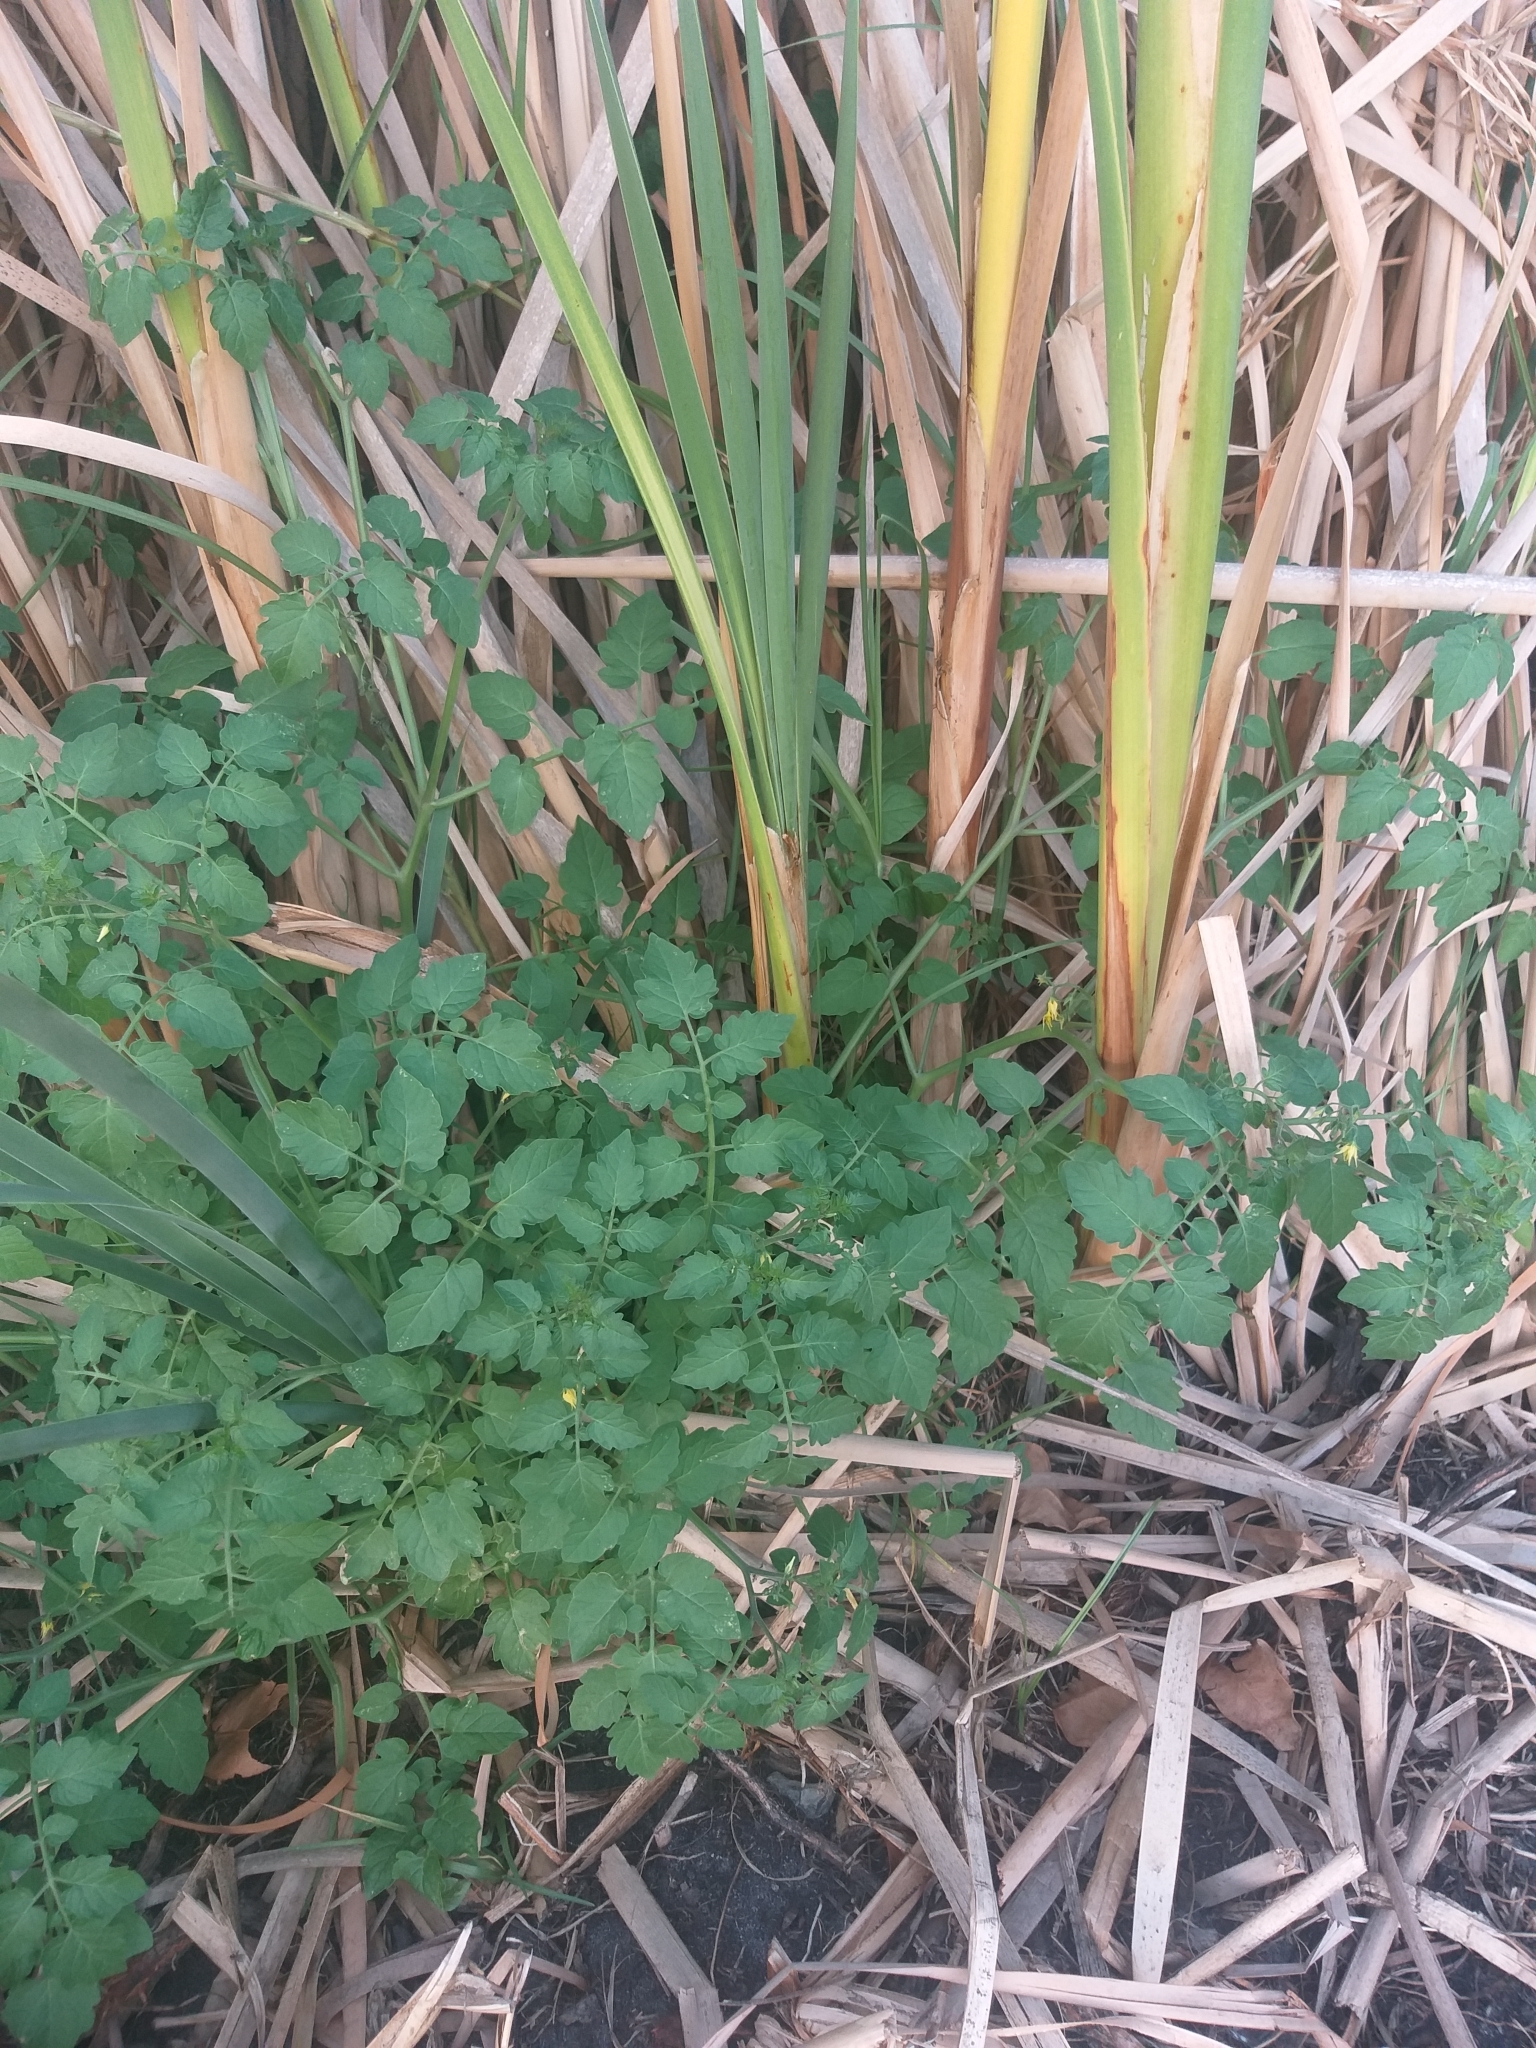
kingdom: Plantae
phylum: Tracheophyta
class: Magnoliopsida
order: Solanales
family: Solanaceae
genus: Solanum
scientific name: Solanum lycopersicum
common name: Garden tomato
